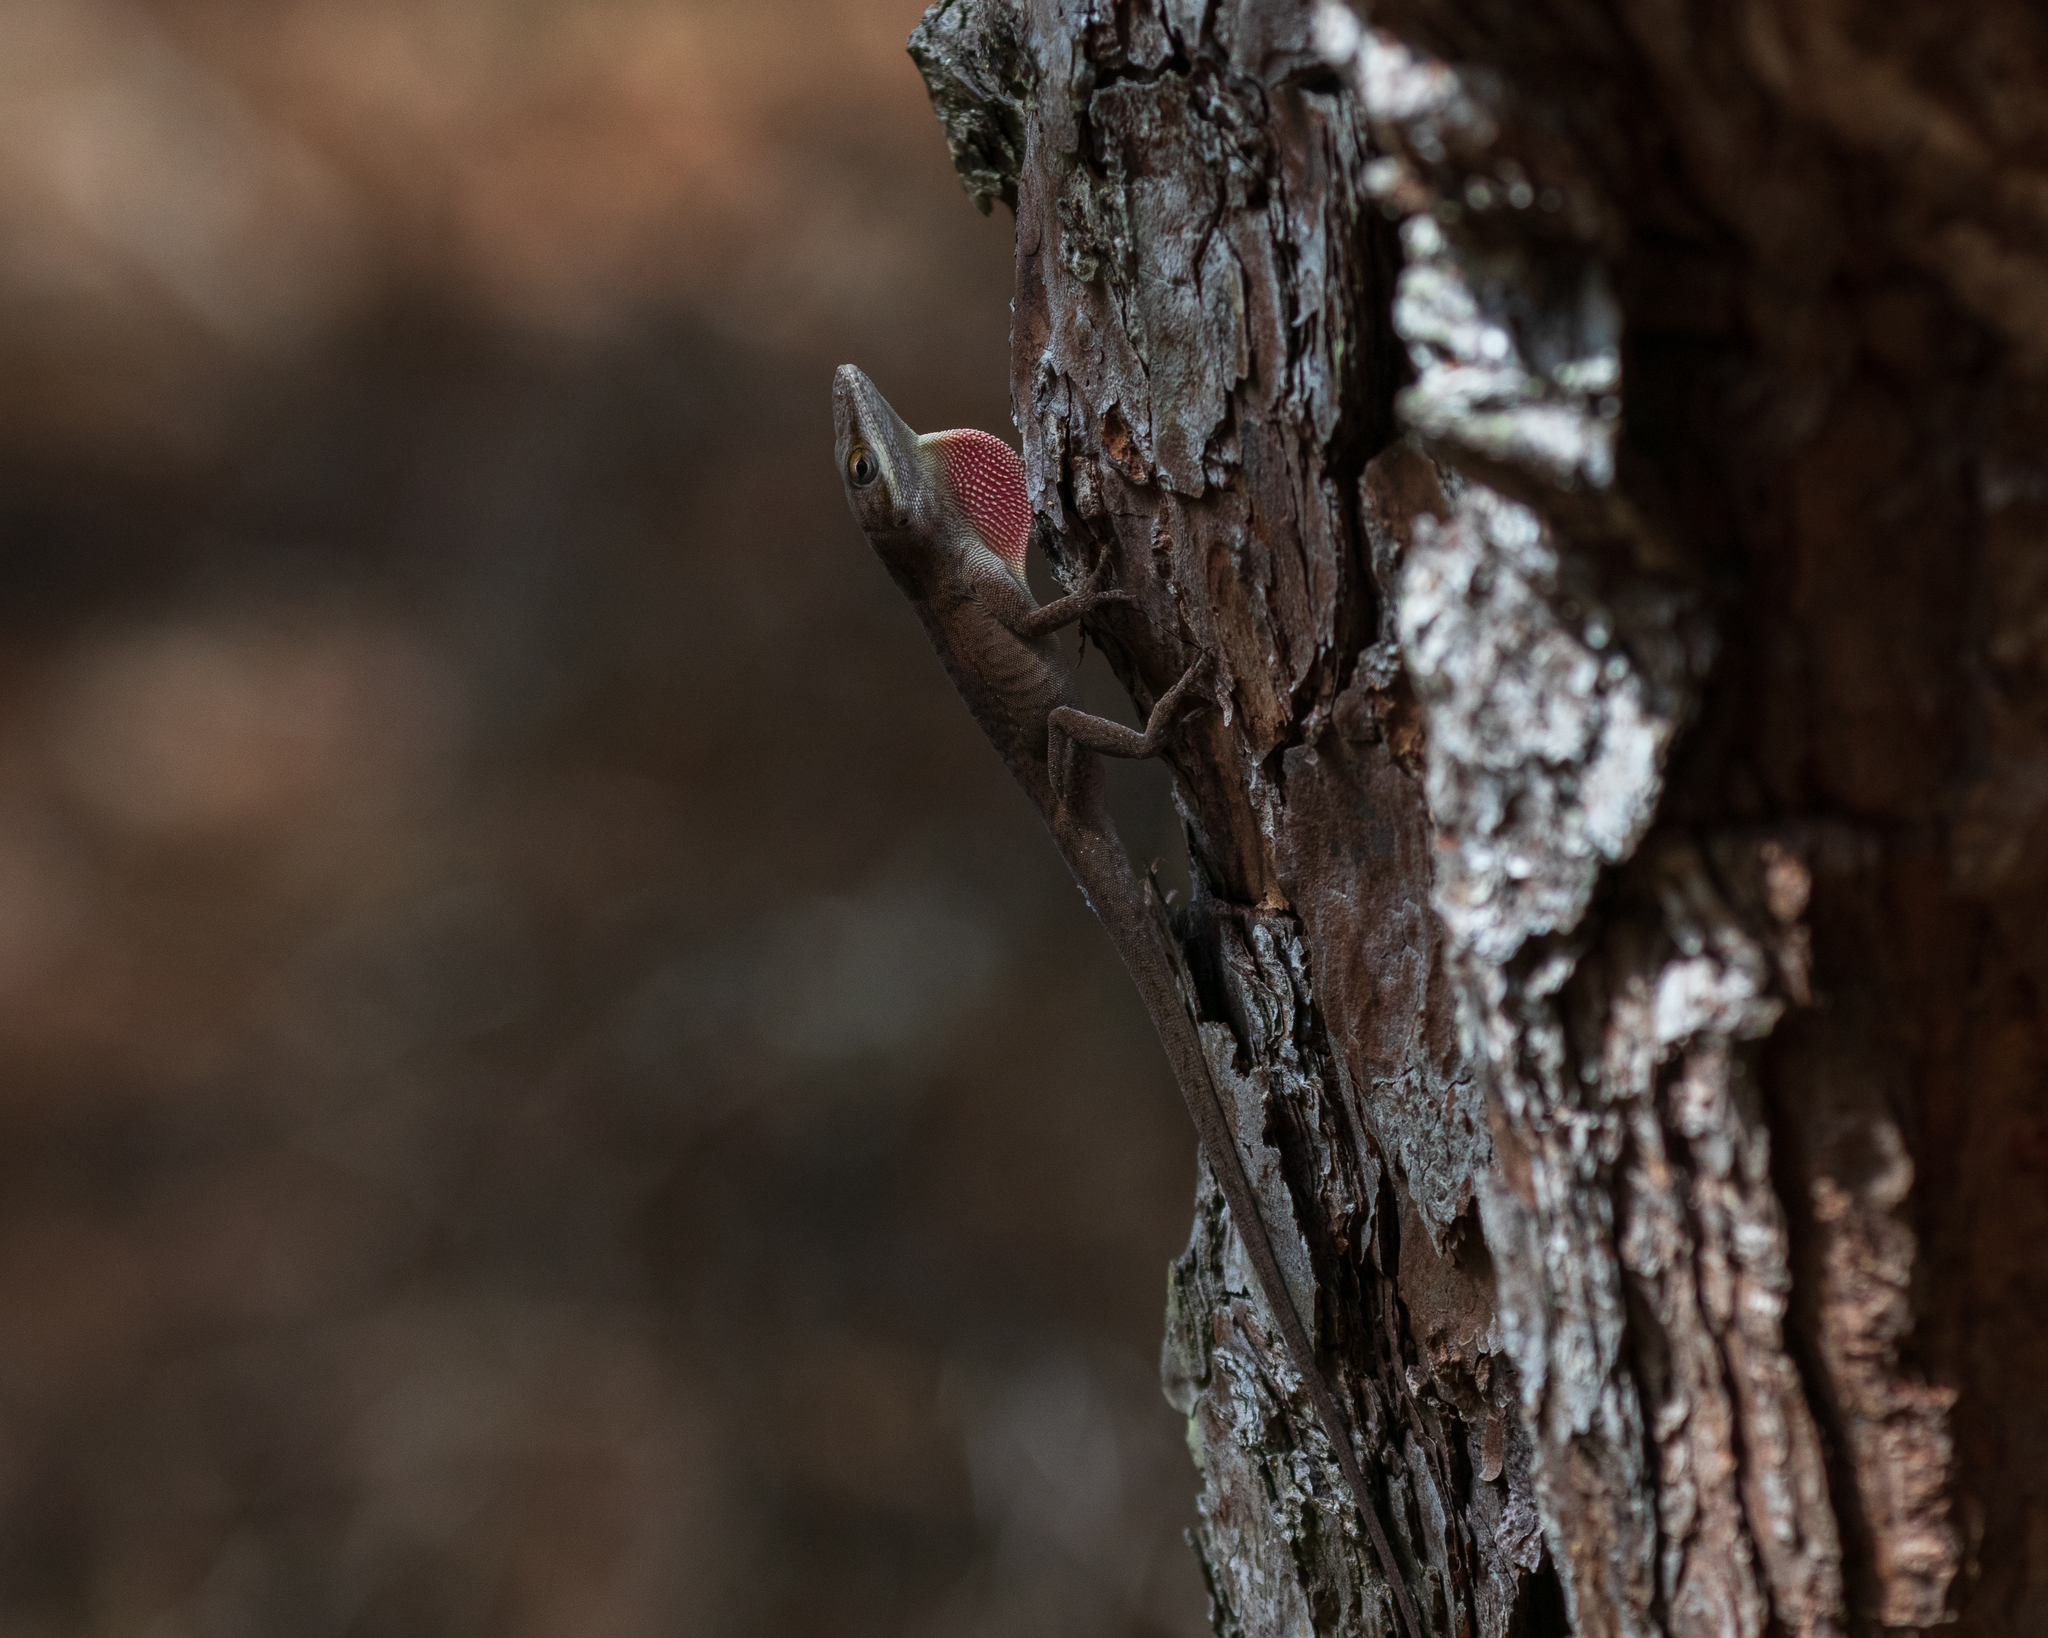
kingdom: Animalia
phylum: Chordata
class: Squamata
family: Dactyloidae
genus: Anolis
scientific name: Anolis carolinensis
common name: Green anole
